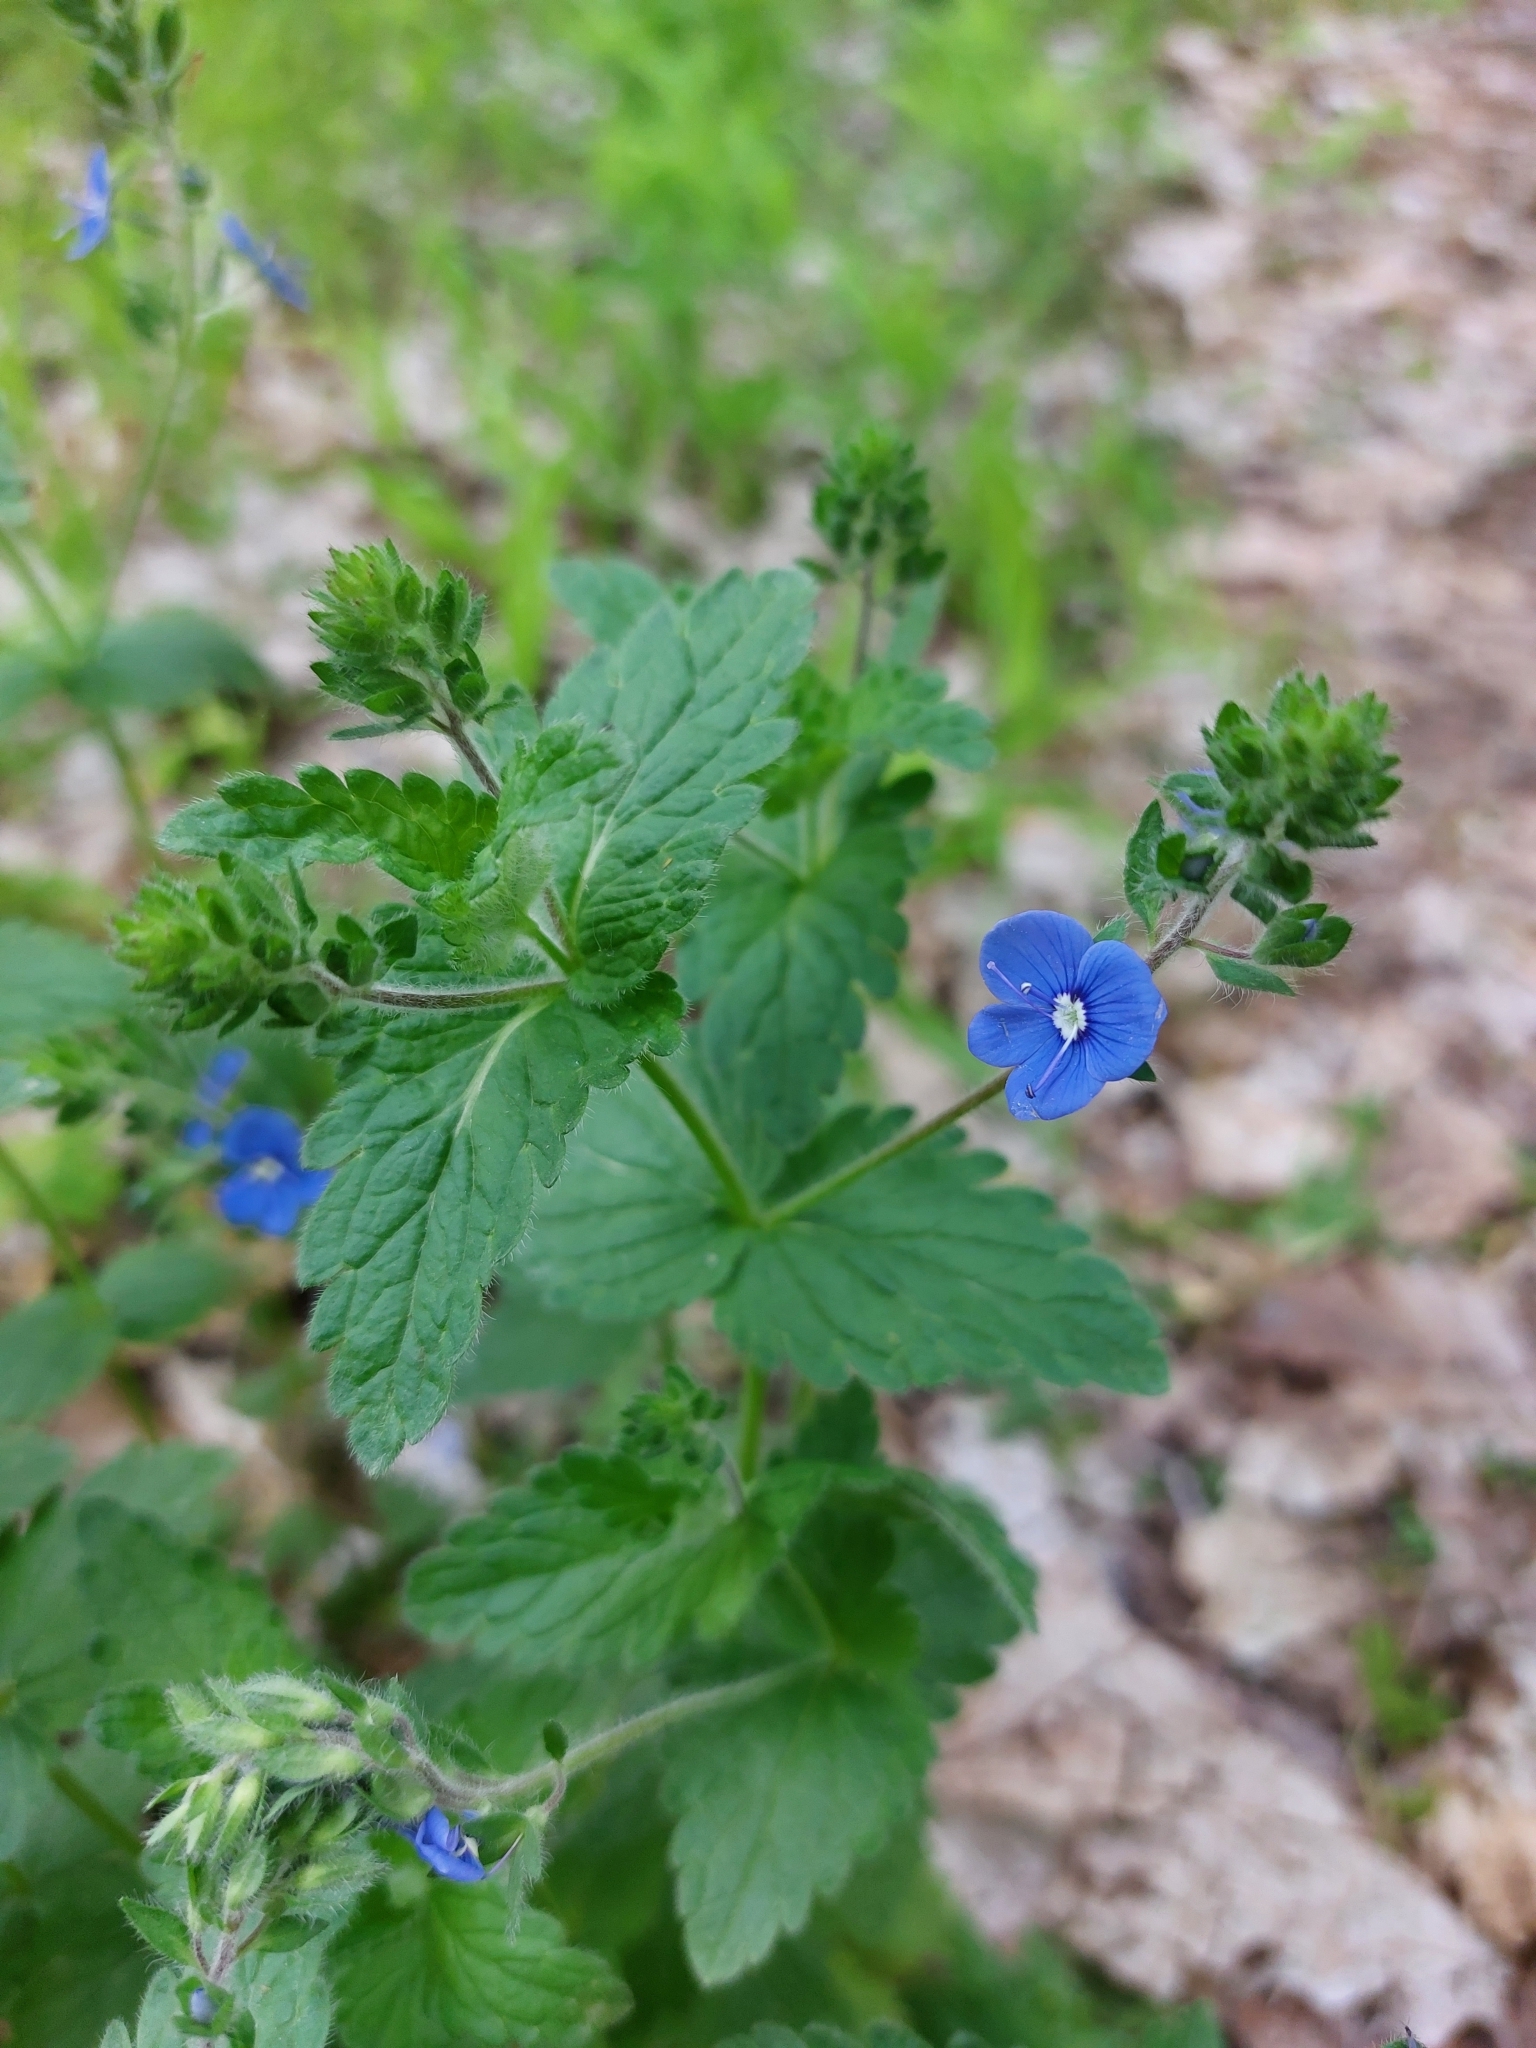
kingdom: Plantae
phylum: Tracheophyta
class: Magnoliopsida
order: Lamiales
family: Plantaginaceae
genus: Veronica
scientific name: Veronica chamaedrys
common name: Germander speedwell
